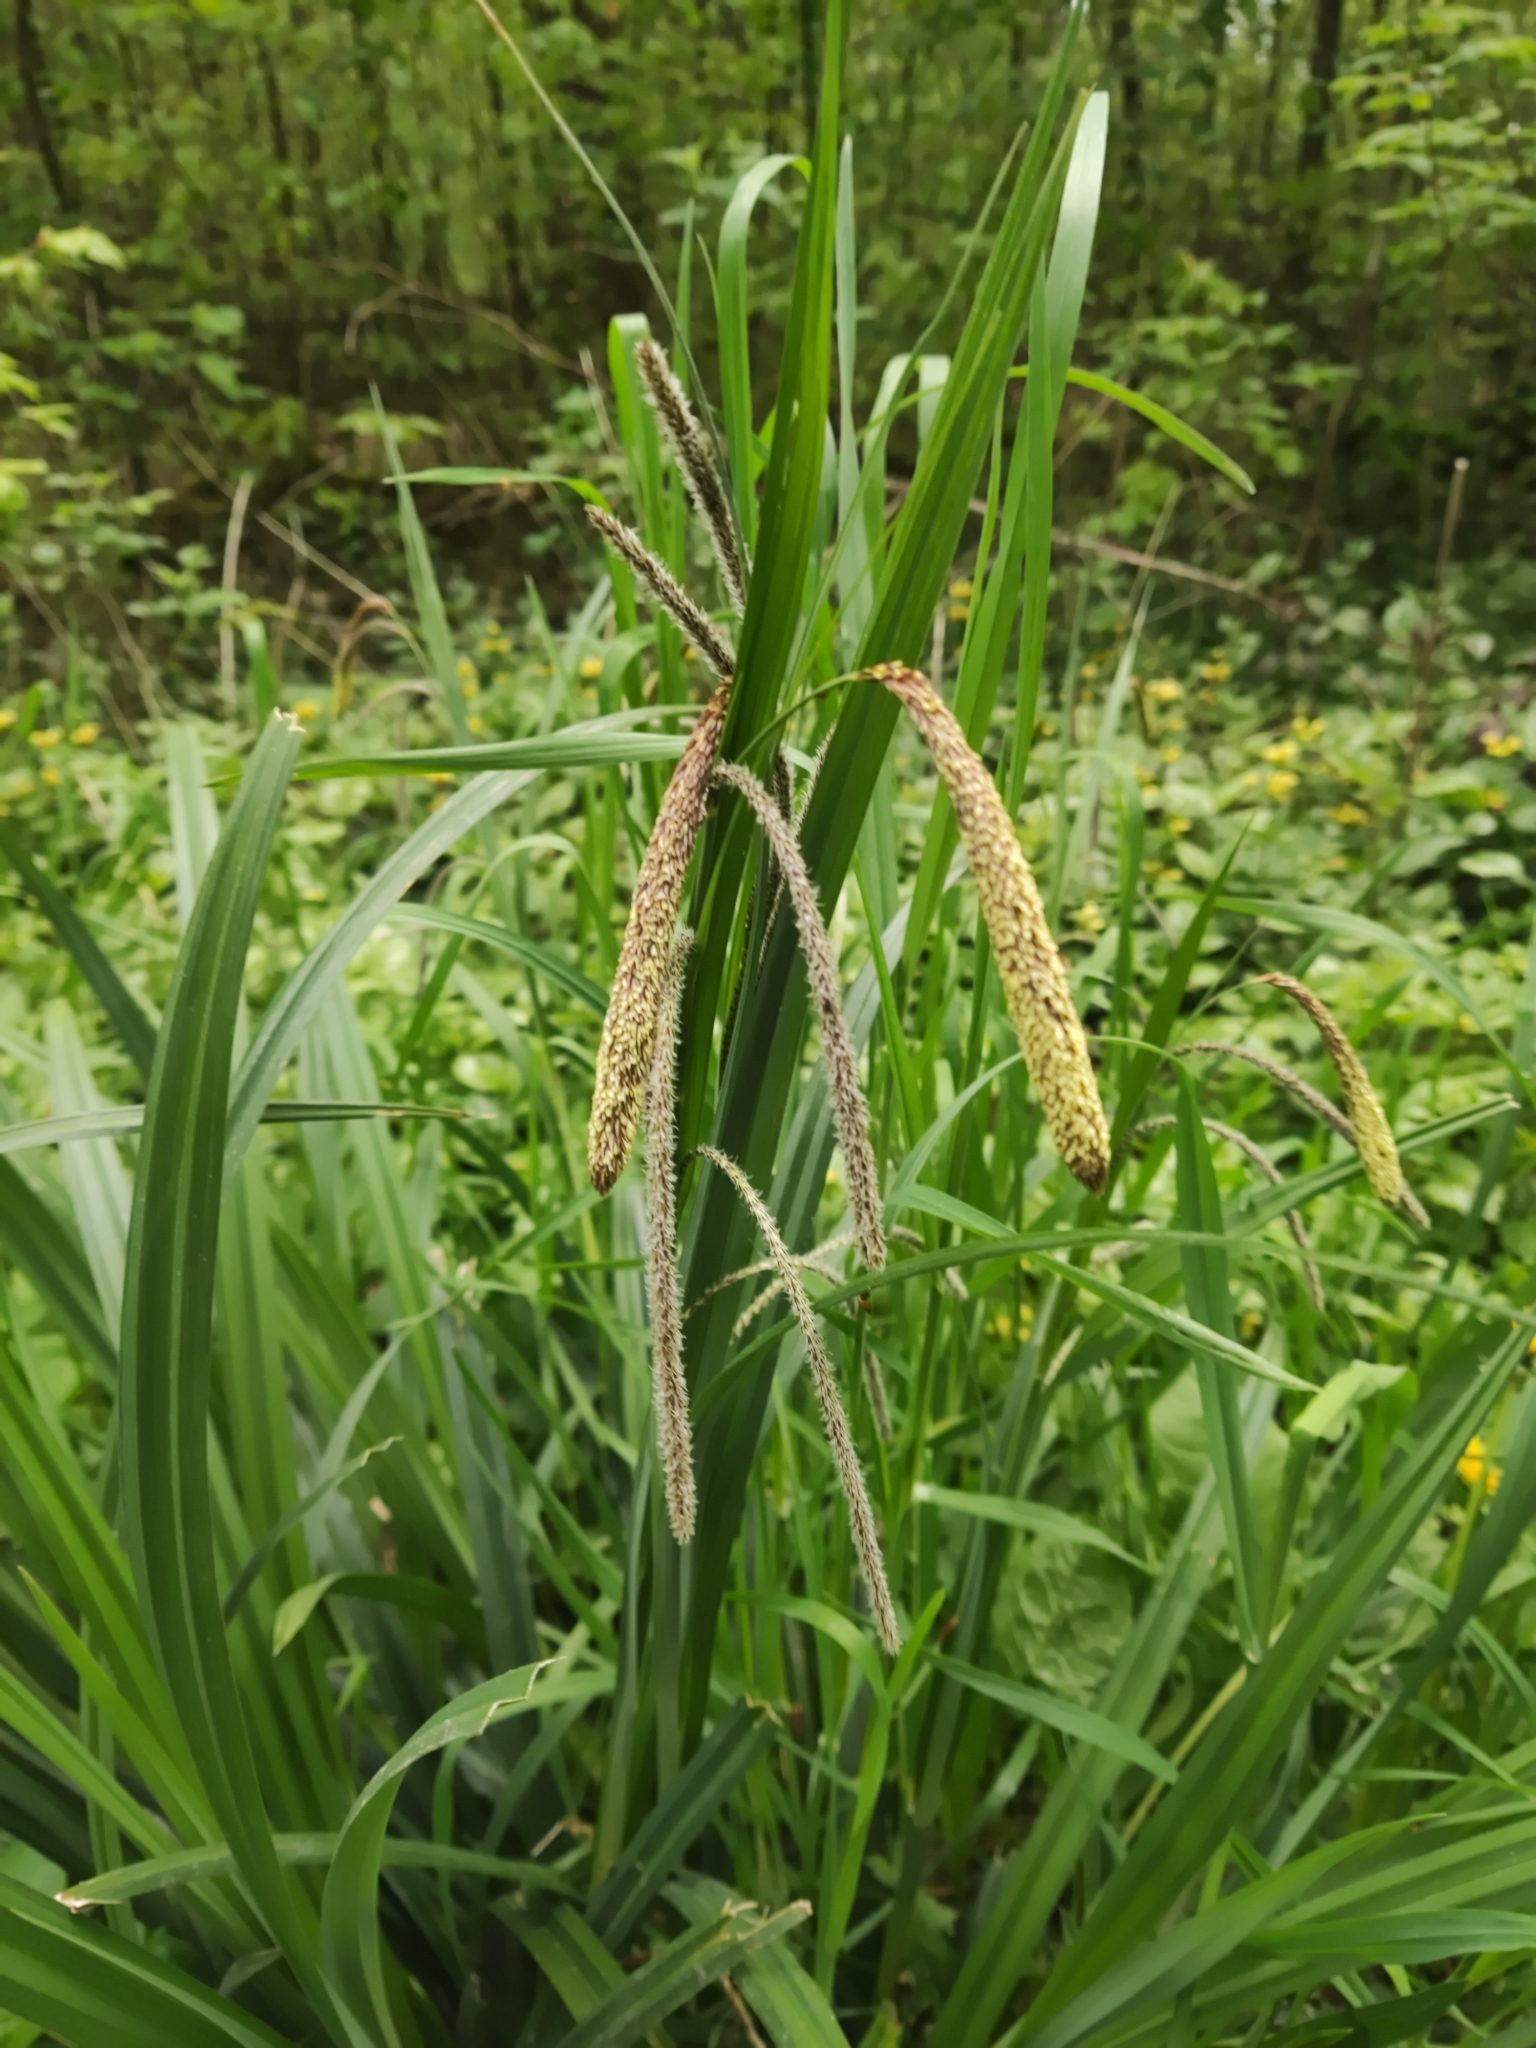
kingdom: Plantae
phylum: Tracheophyta
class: Liliopsida
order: Poales
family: Cyperaceae
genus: Carex
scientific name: Carex pendula
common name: Pendulous sedge
